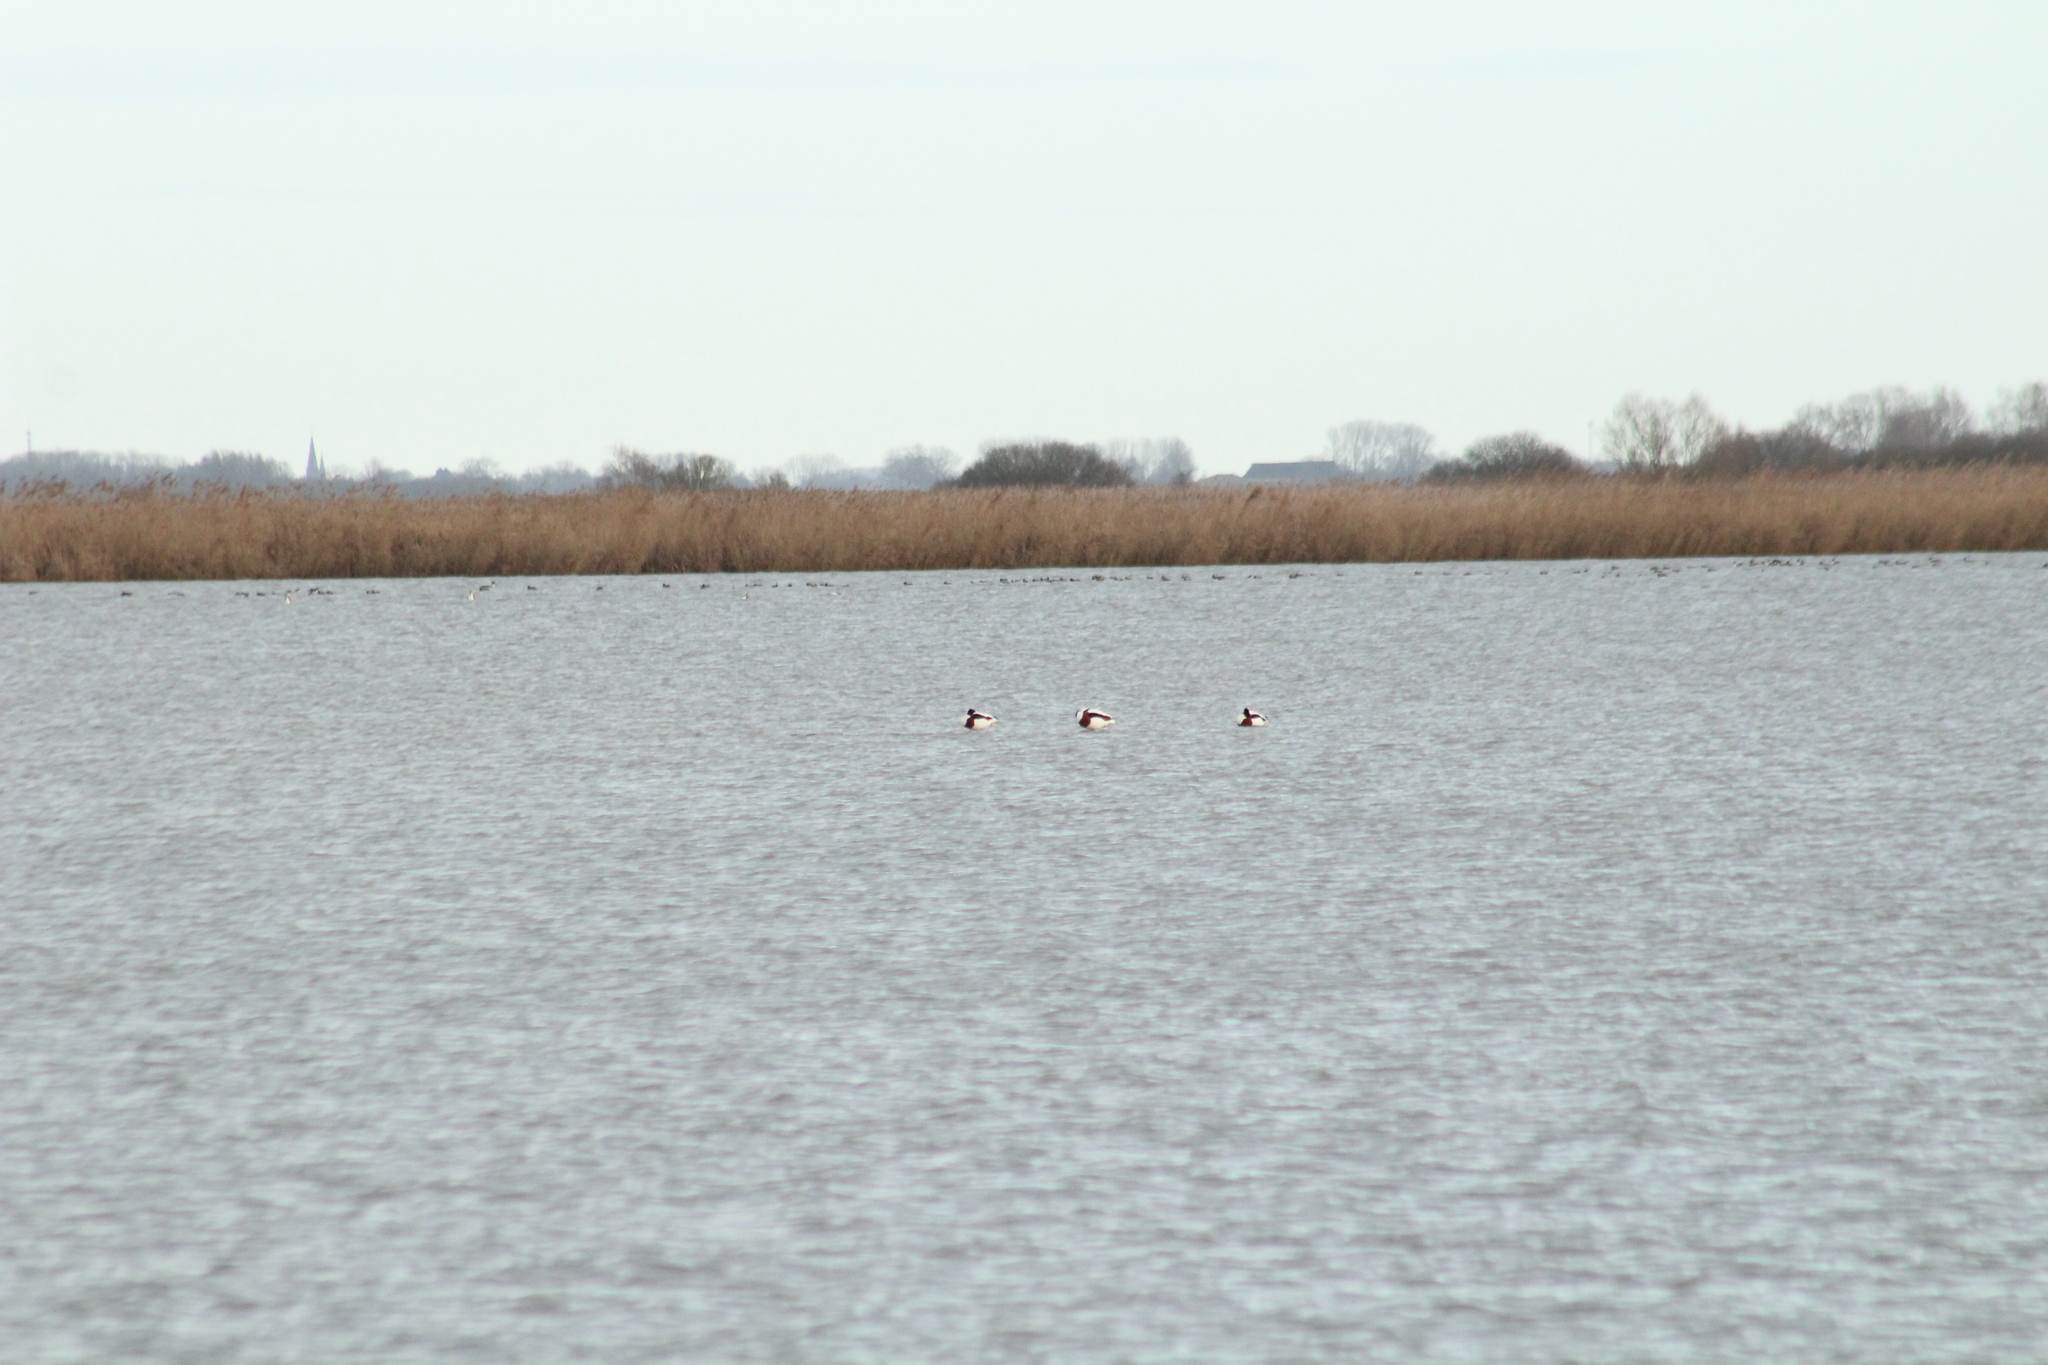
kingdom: Animalia
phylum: Chordata
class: Aves
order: Anseriformes
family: Anatidae
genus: Tadorna
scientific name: Tadorna tadorna
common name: Common shelduck
